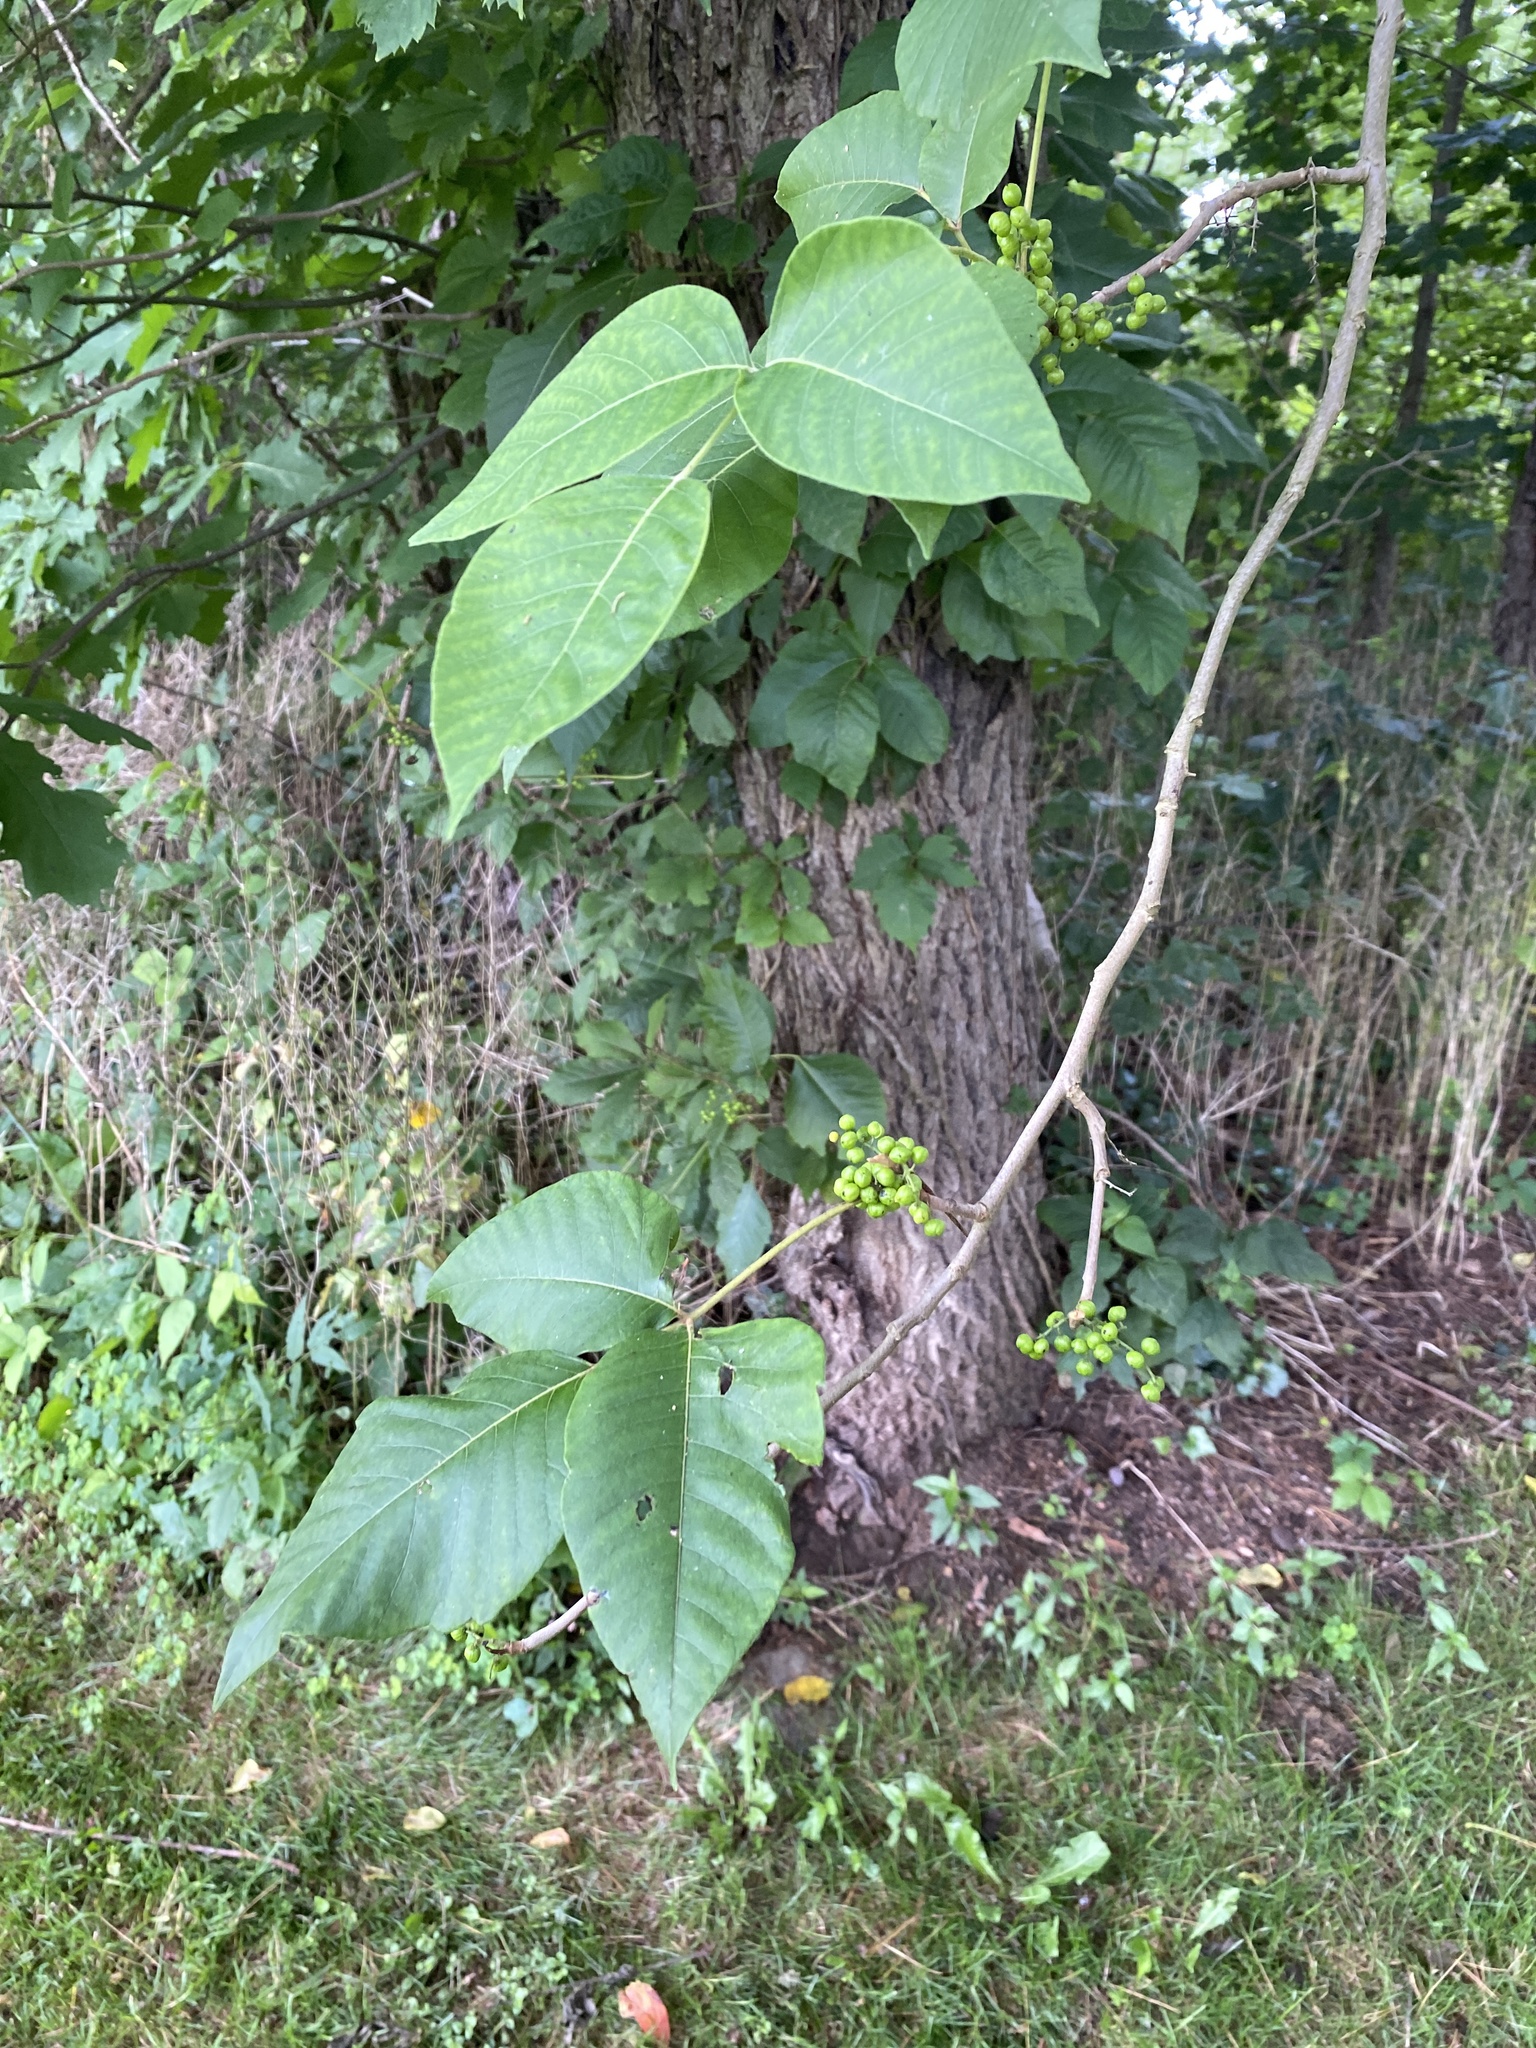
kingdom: Plantae
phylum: Tracheophyta
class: Magnoliopsida
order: Sapindales
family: Anacardiaceae
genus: Toxicodendron
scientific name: Toxicodendron radicans
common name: Poison ivy
